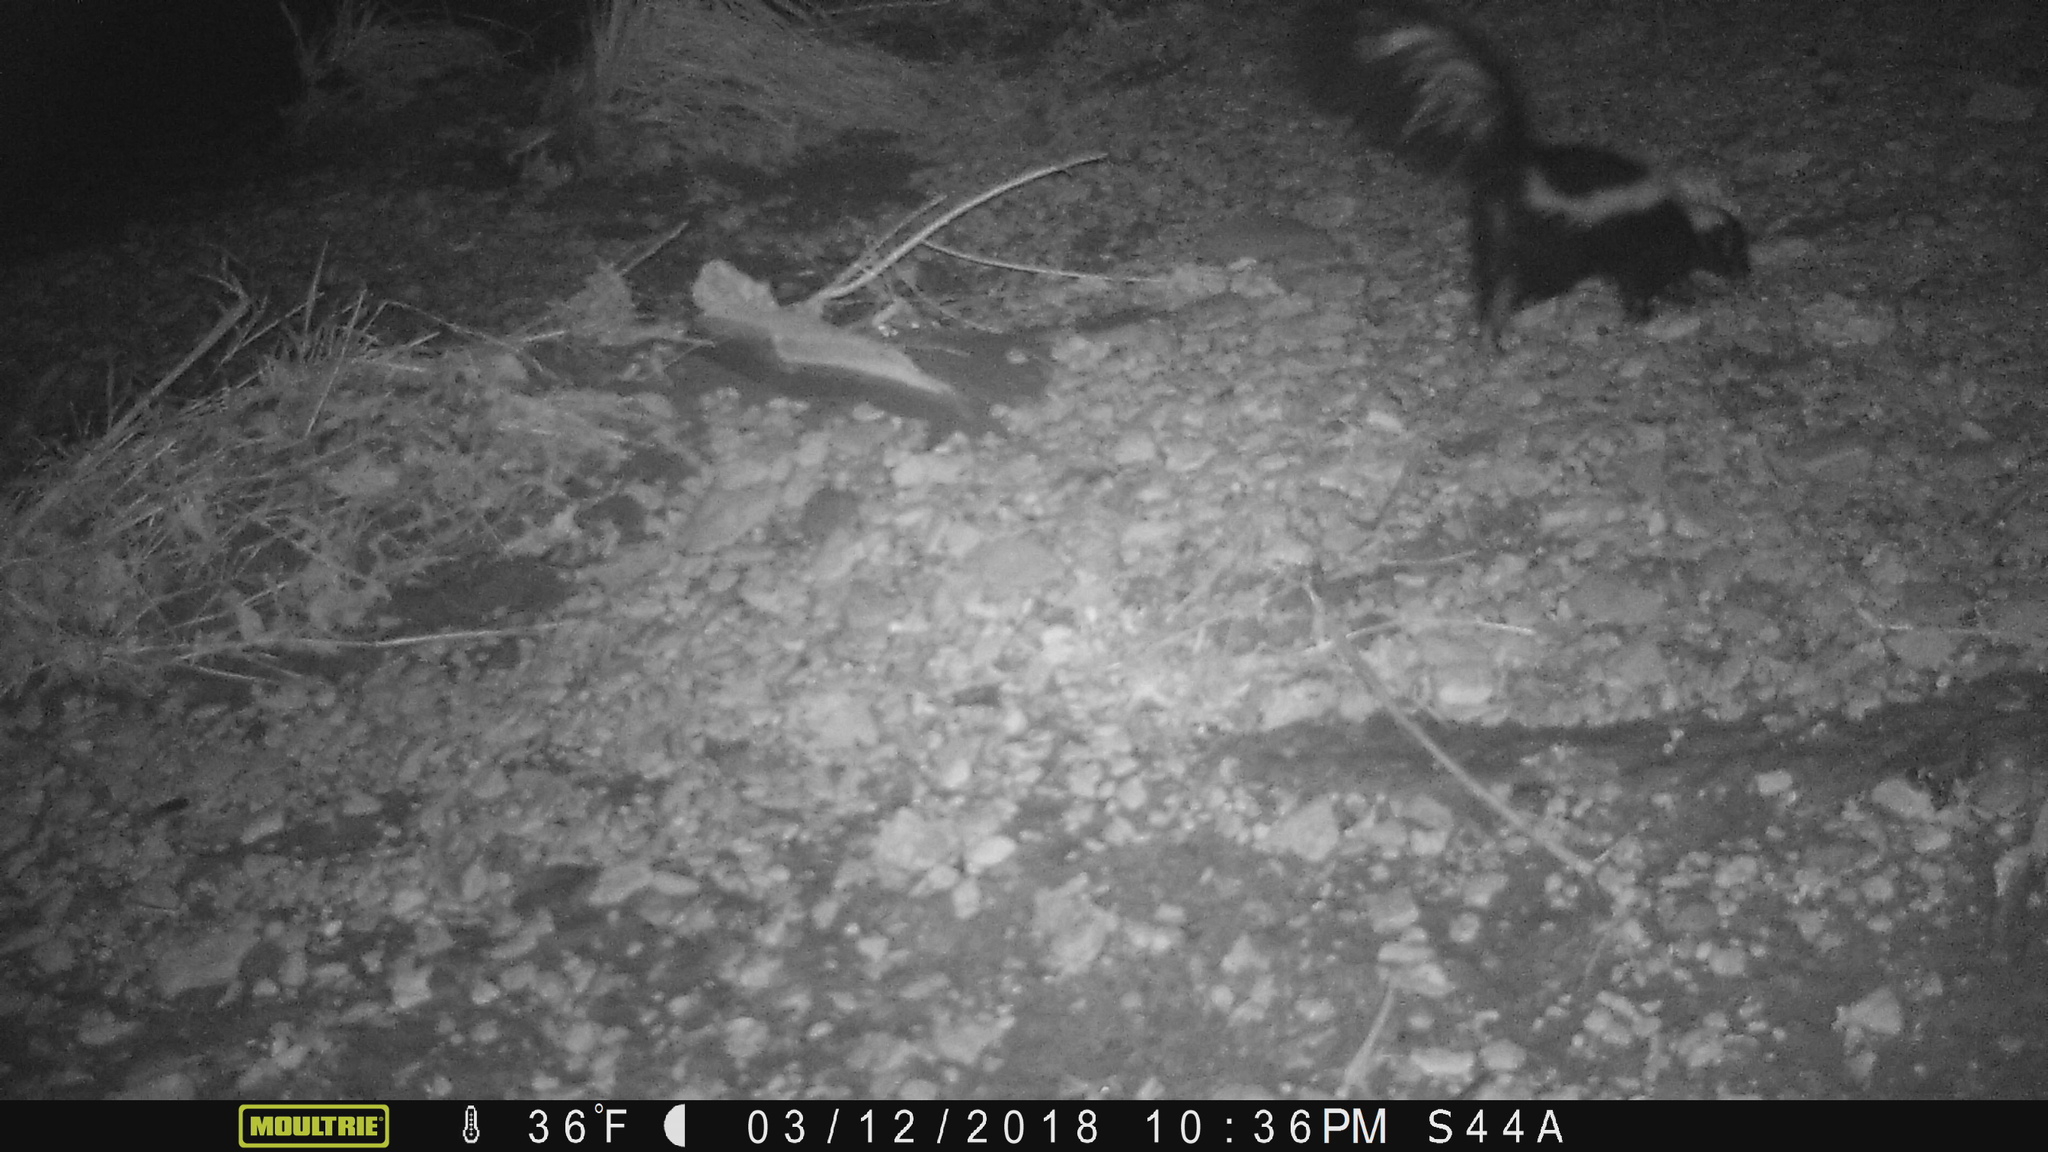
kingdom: Animalia
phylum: Chordata
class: Mammalia
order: Carnivora
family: Mephitidae
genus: Mephitis
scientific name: Mephitis mephitis
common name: Striped skunk
